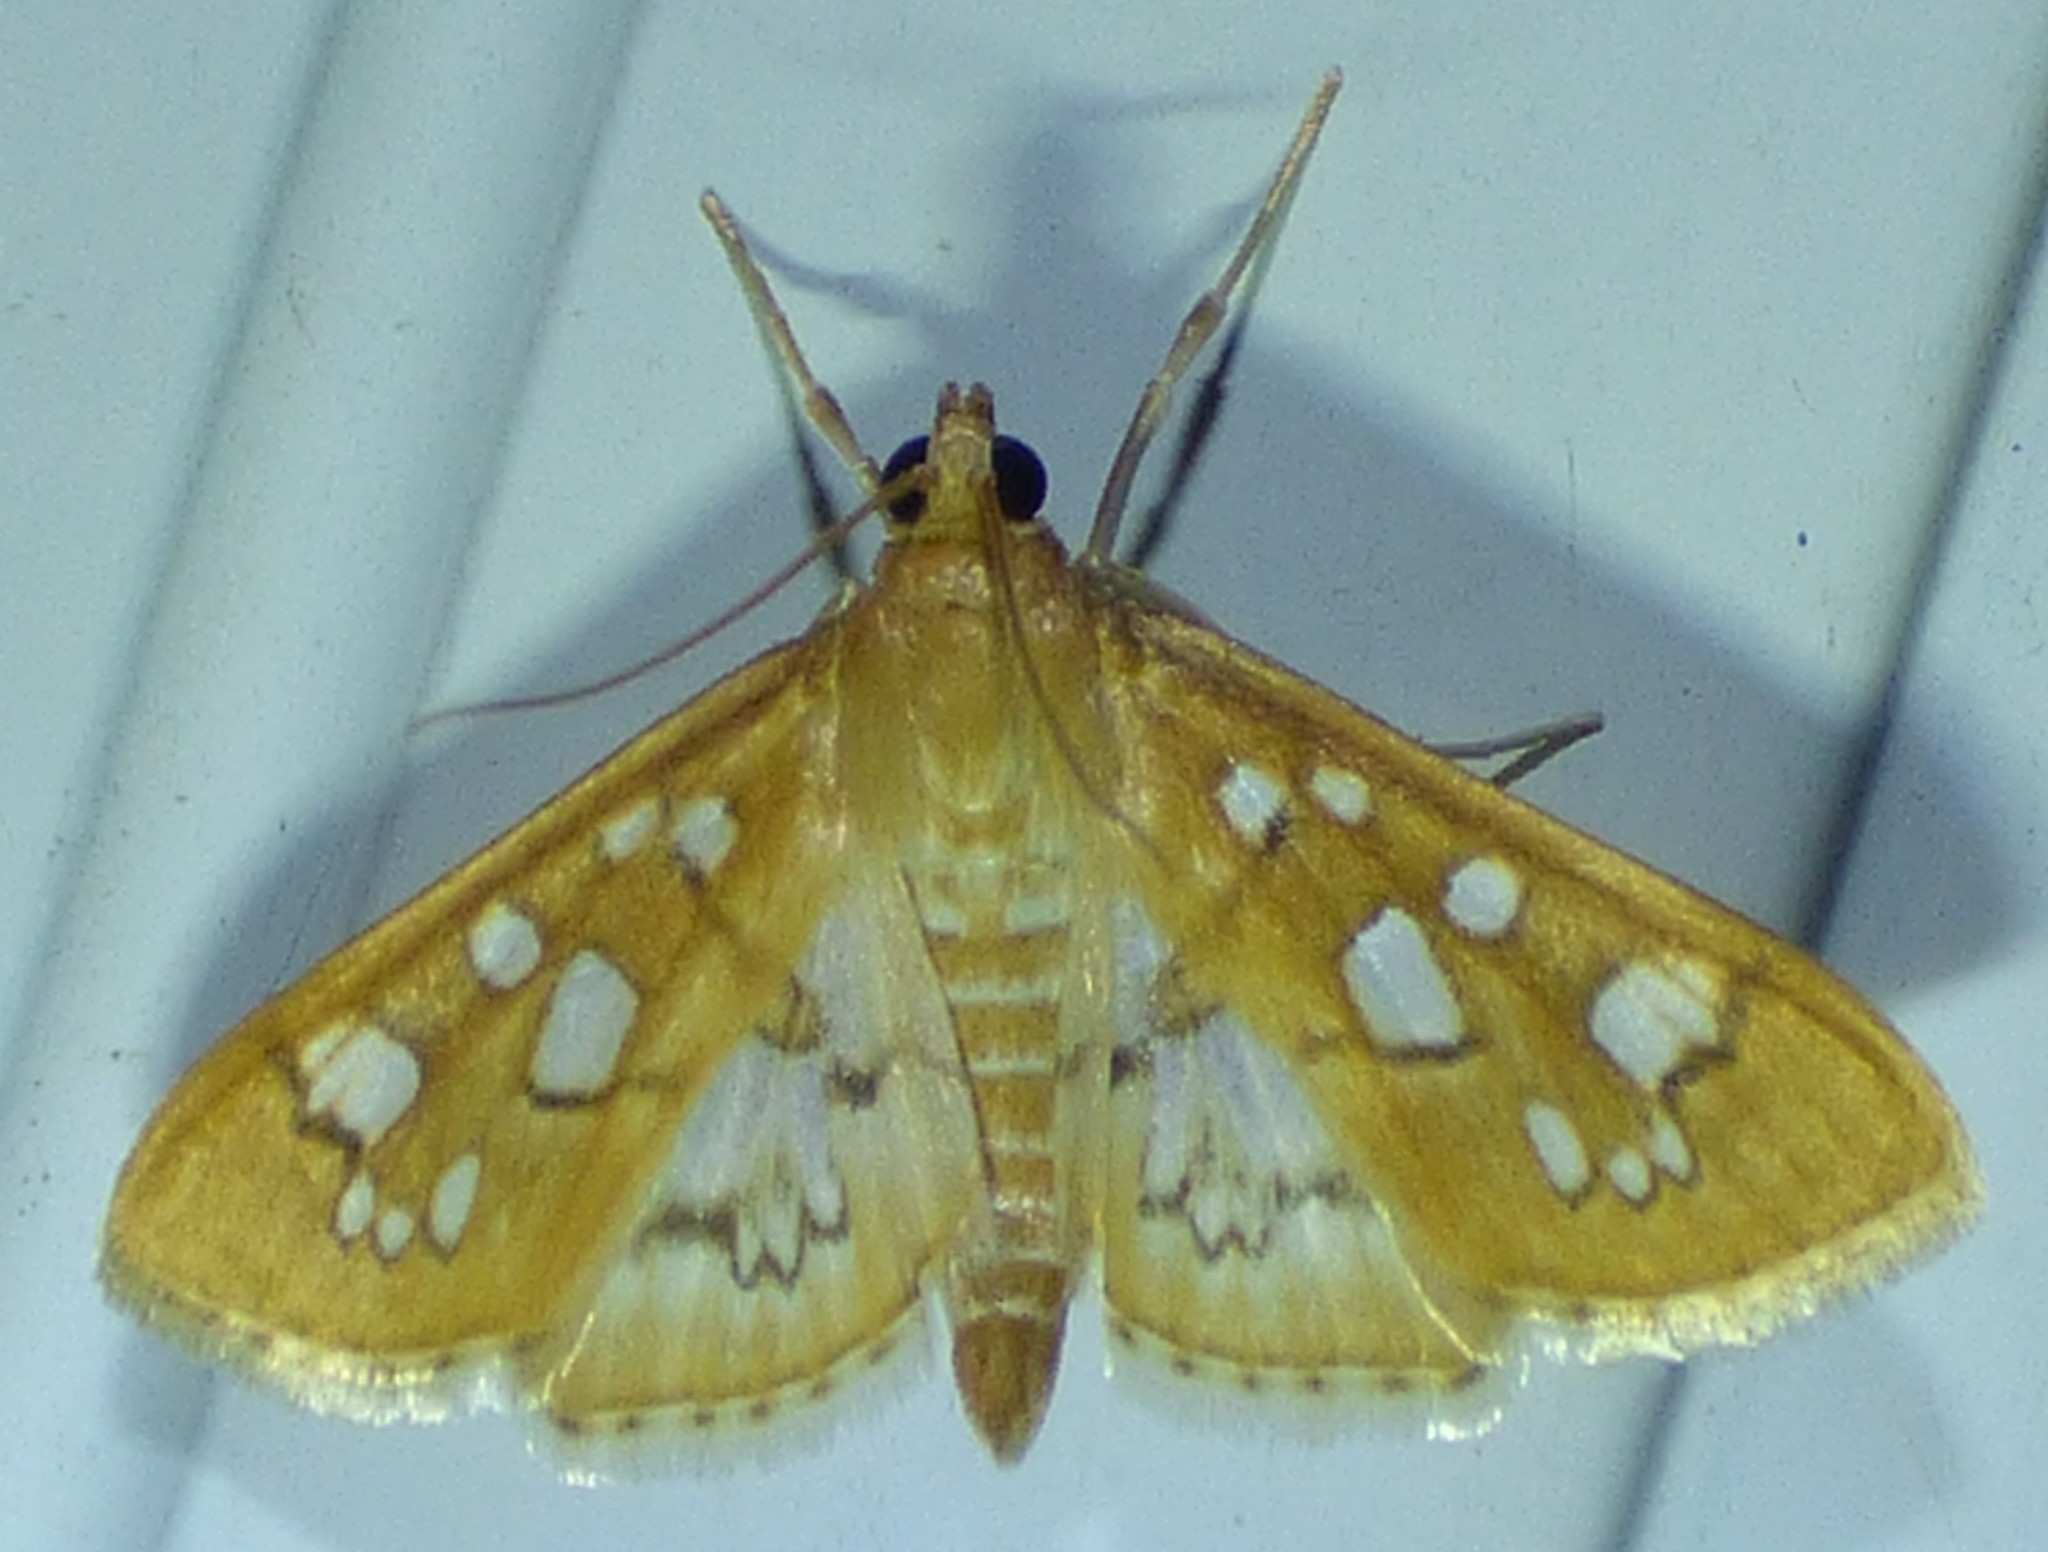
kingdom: Animalia
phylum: Arthropoda
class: Insecta
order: Lepidoptera
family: Crambidae
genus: Samea
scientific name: Samea baccatalis
